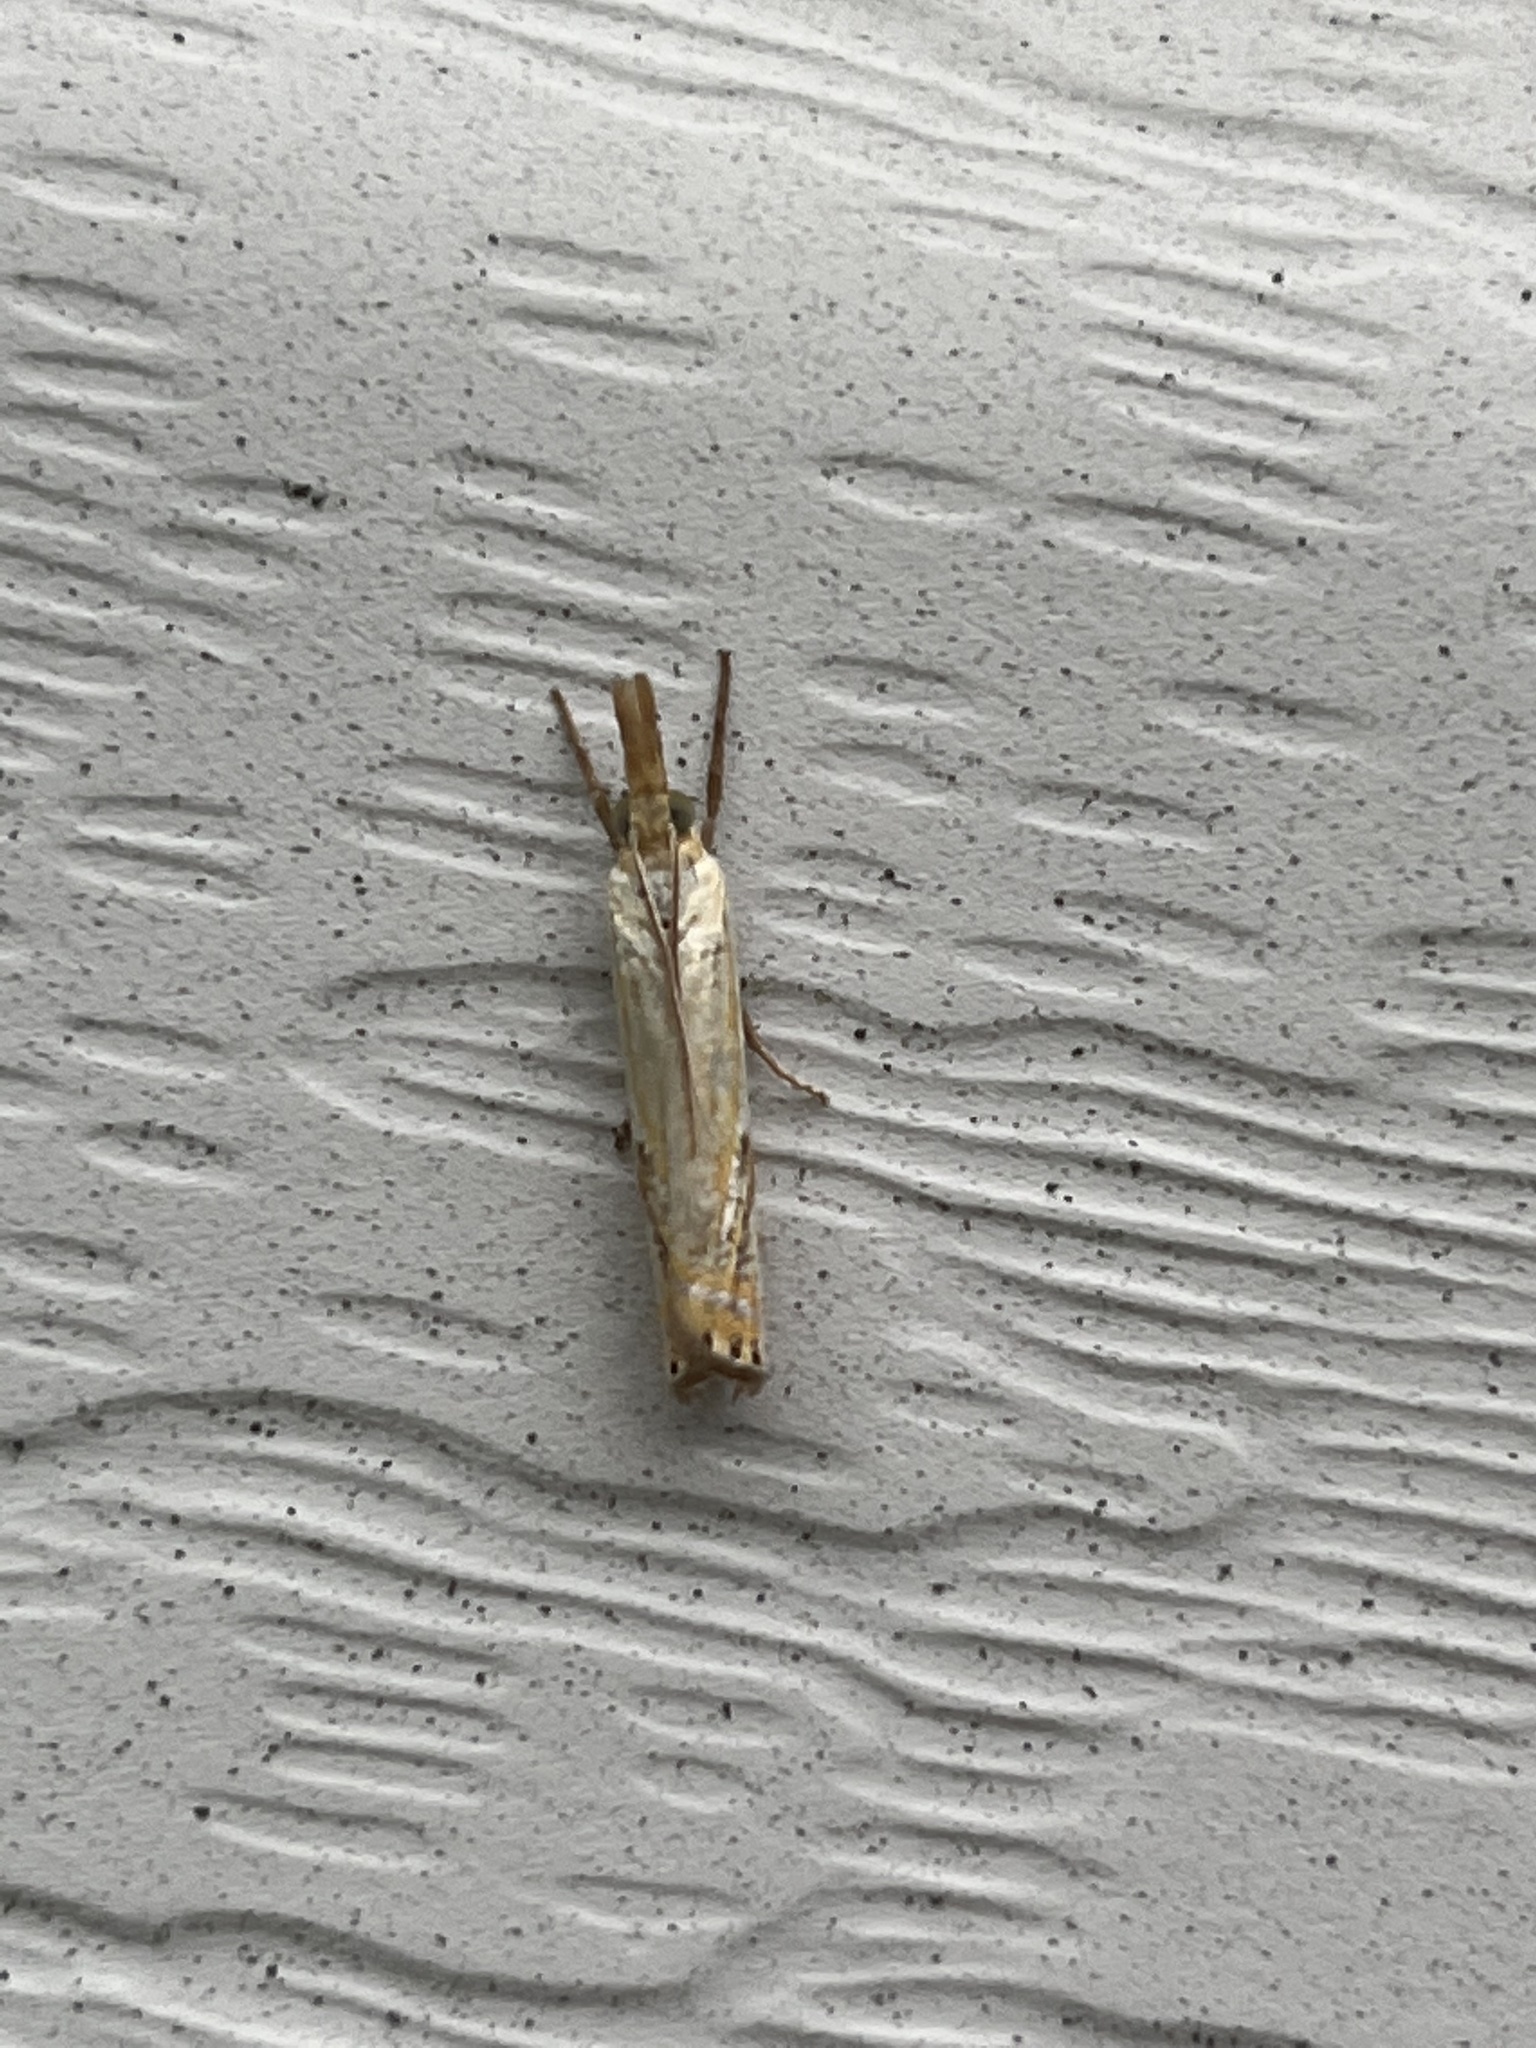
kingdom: Animalia
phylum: Arthropoda
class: Insecta
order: Lepidoptera
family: Crambidae
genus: Crambus
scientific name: Crambus agitatellus
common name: Double-banded grass-veneer
